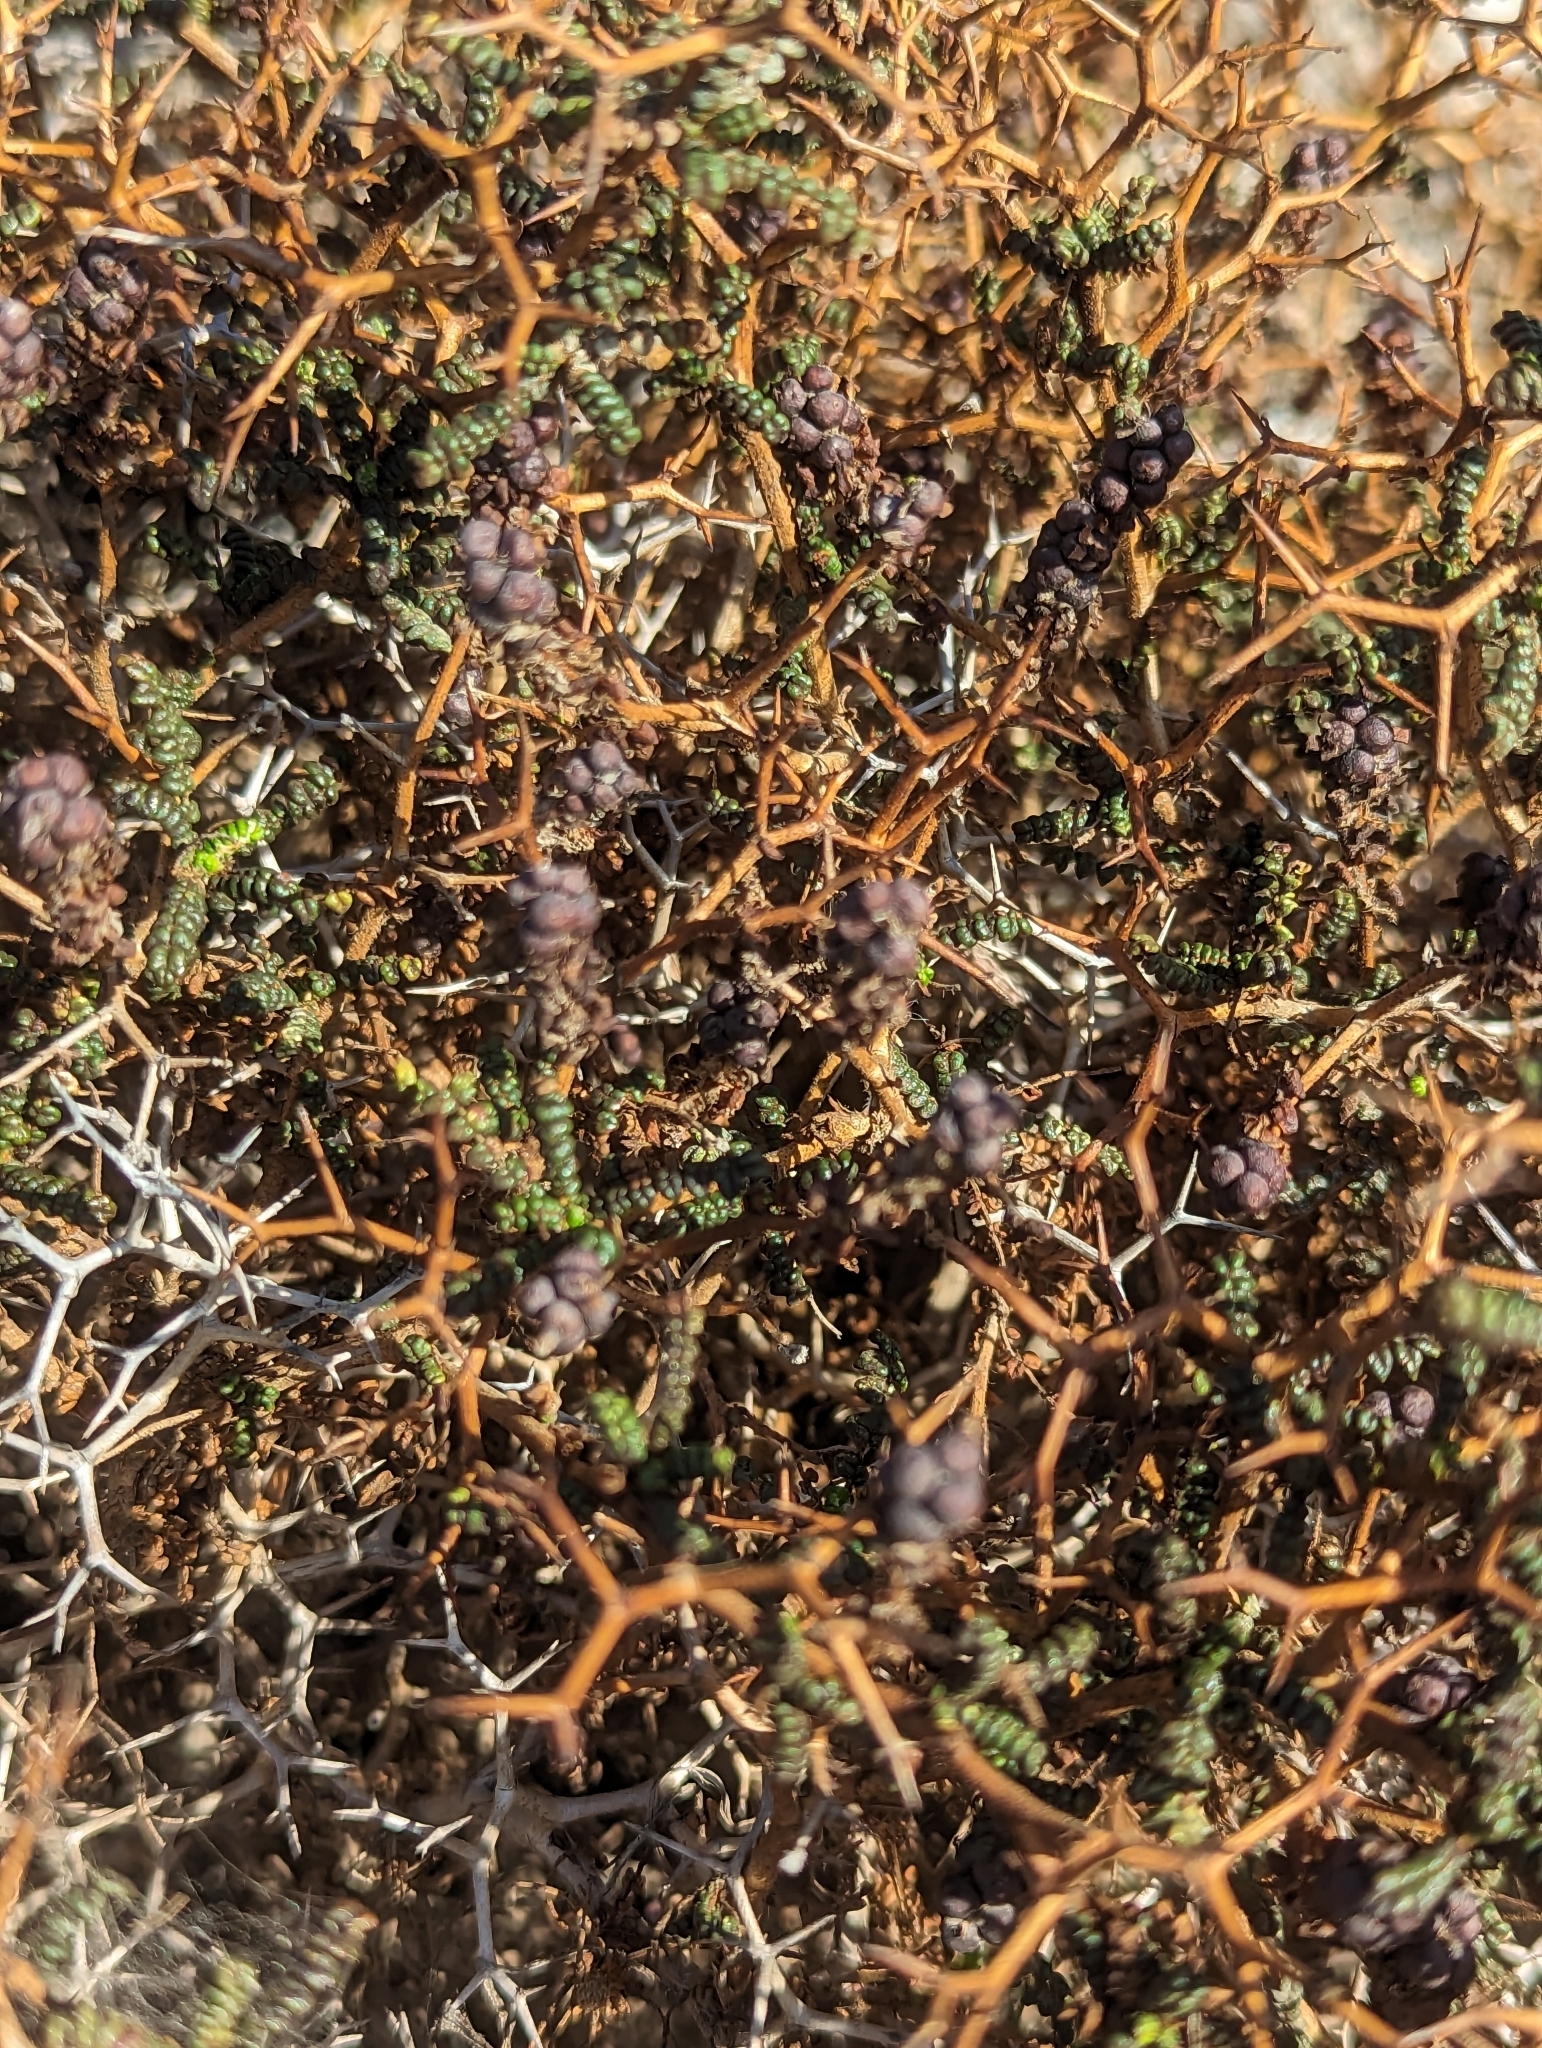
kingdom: Plantae
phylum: Tracheophyta
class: Magnoliopsida
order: Rosales
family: Rosaceae
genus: Sarcopoterium
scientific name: Sarcopoterium spinosum
